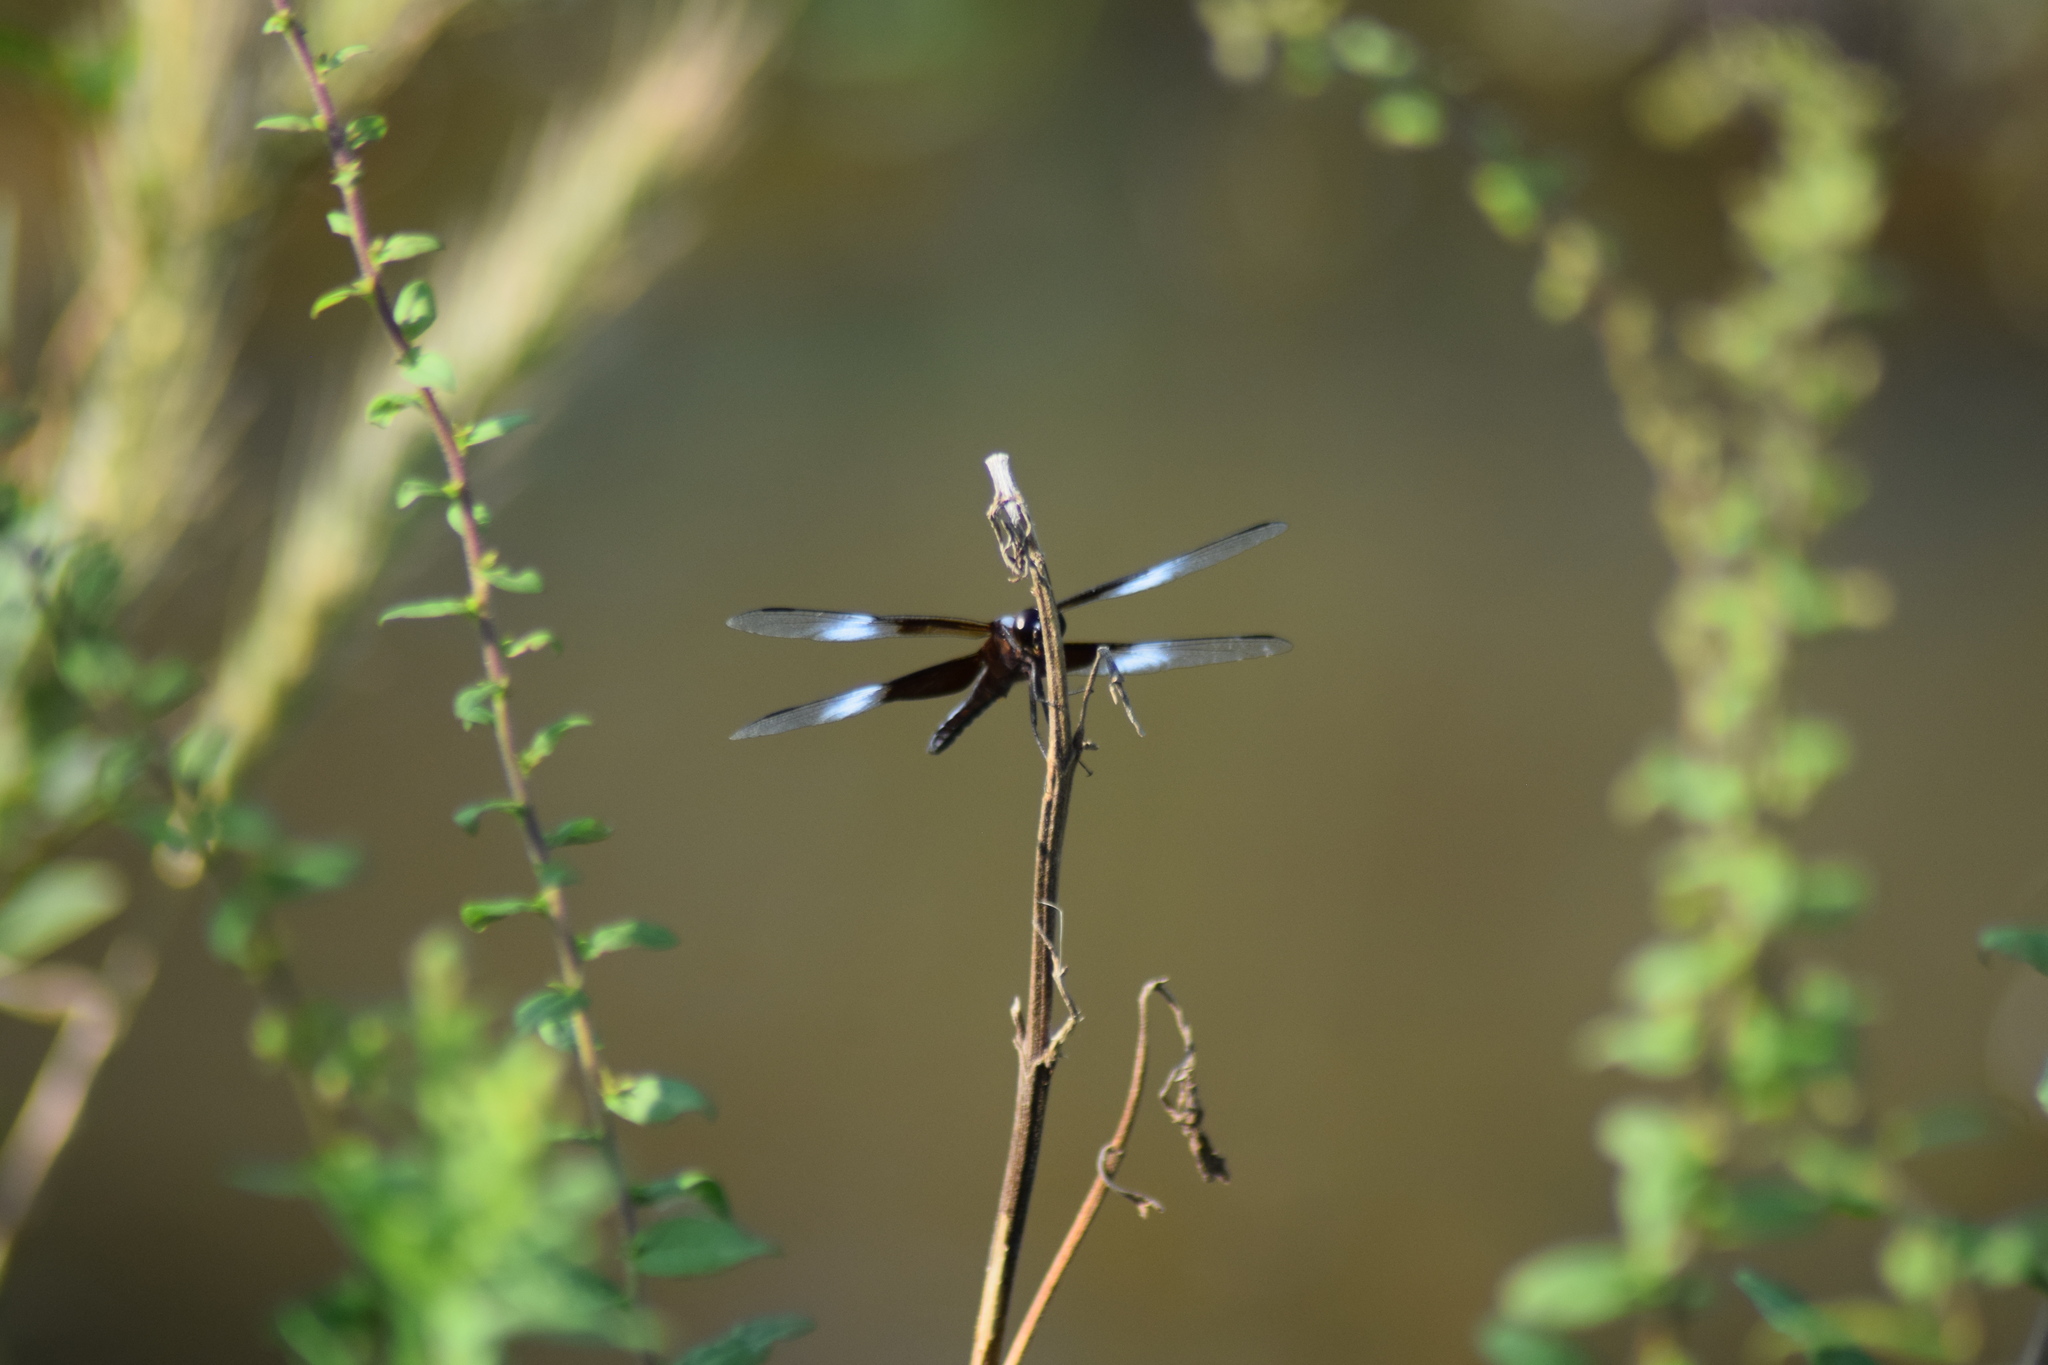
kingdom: Animalia
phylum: Arthropoda
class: Insecta
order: Odonata
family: Libellulidae
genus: Libellula
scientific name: Libellula luctuosa
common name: Widow skimmer
